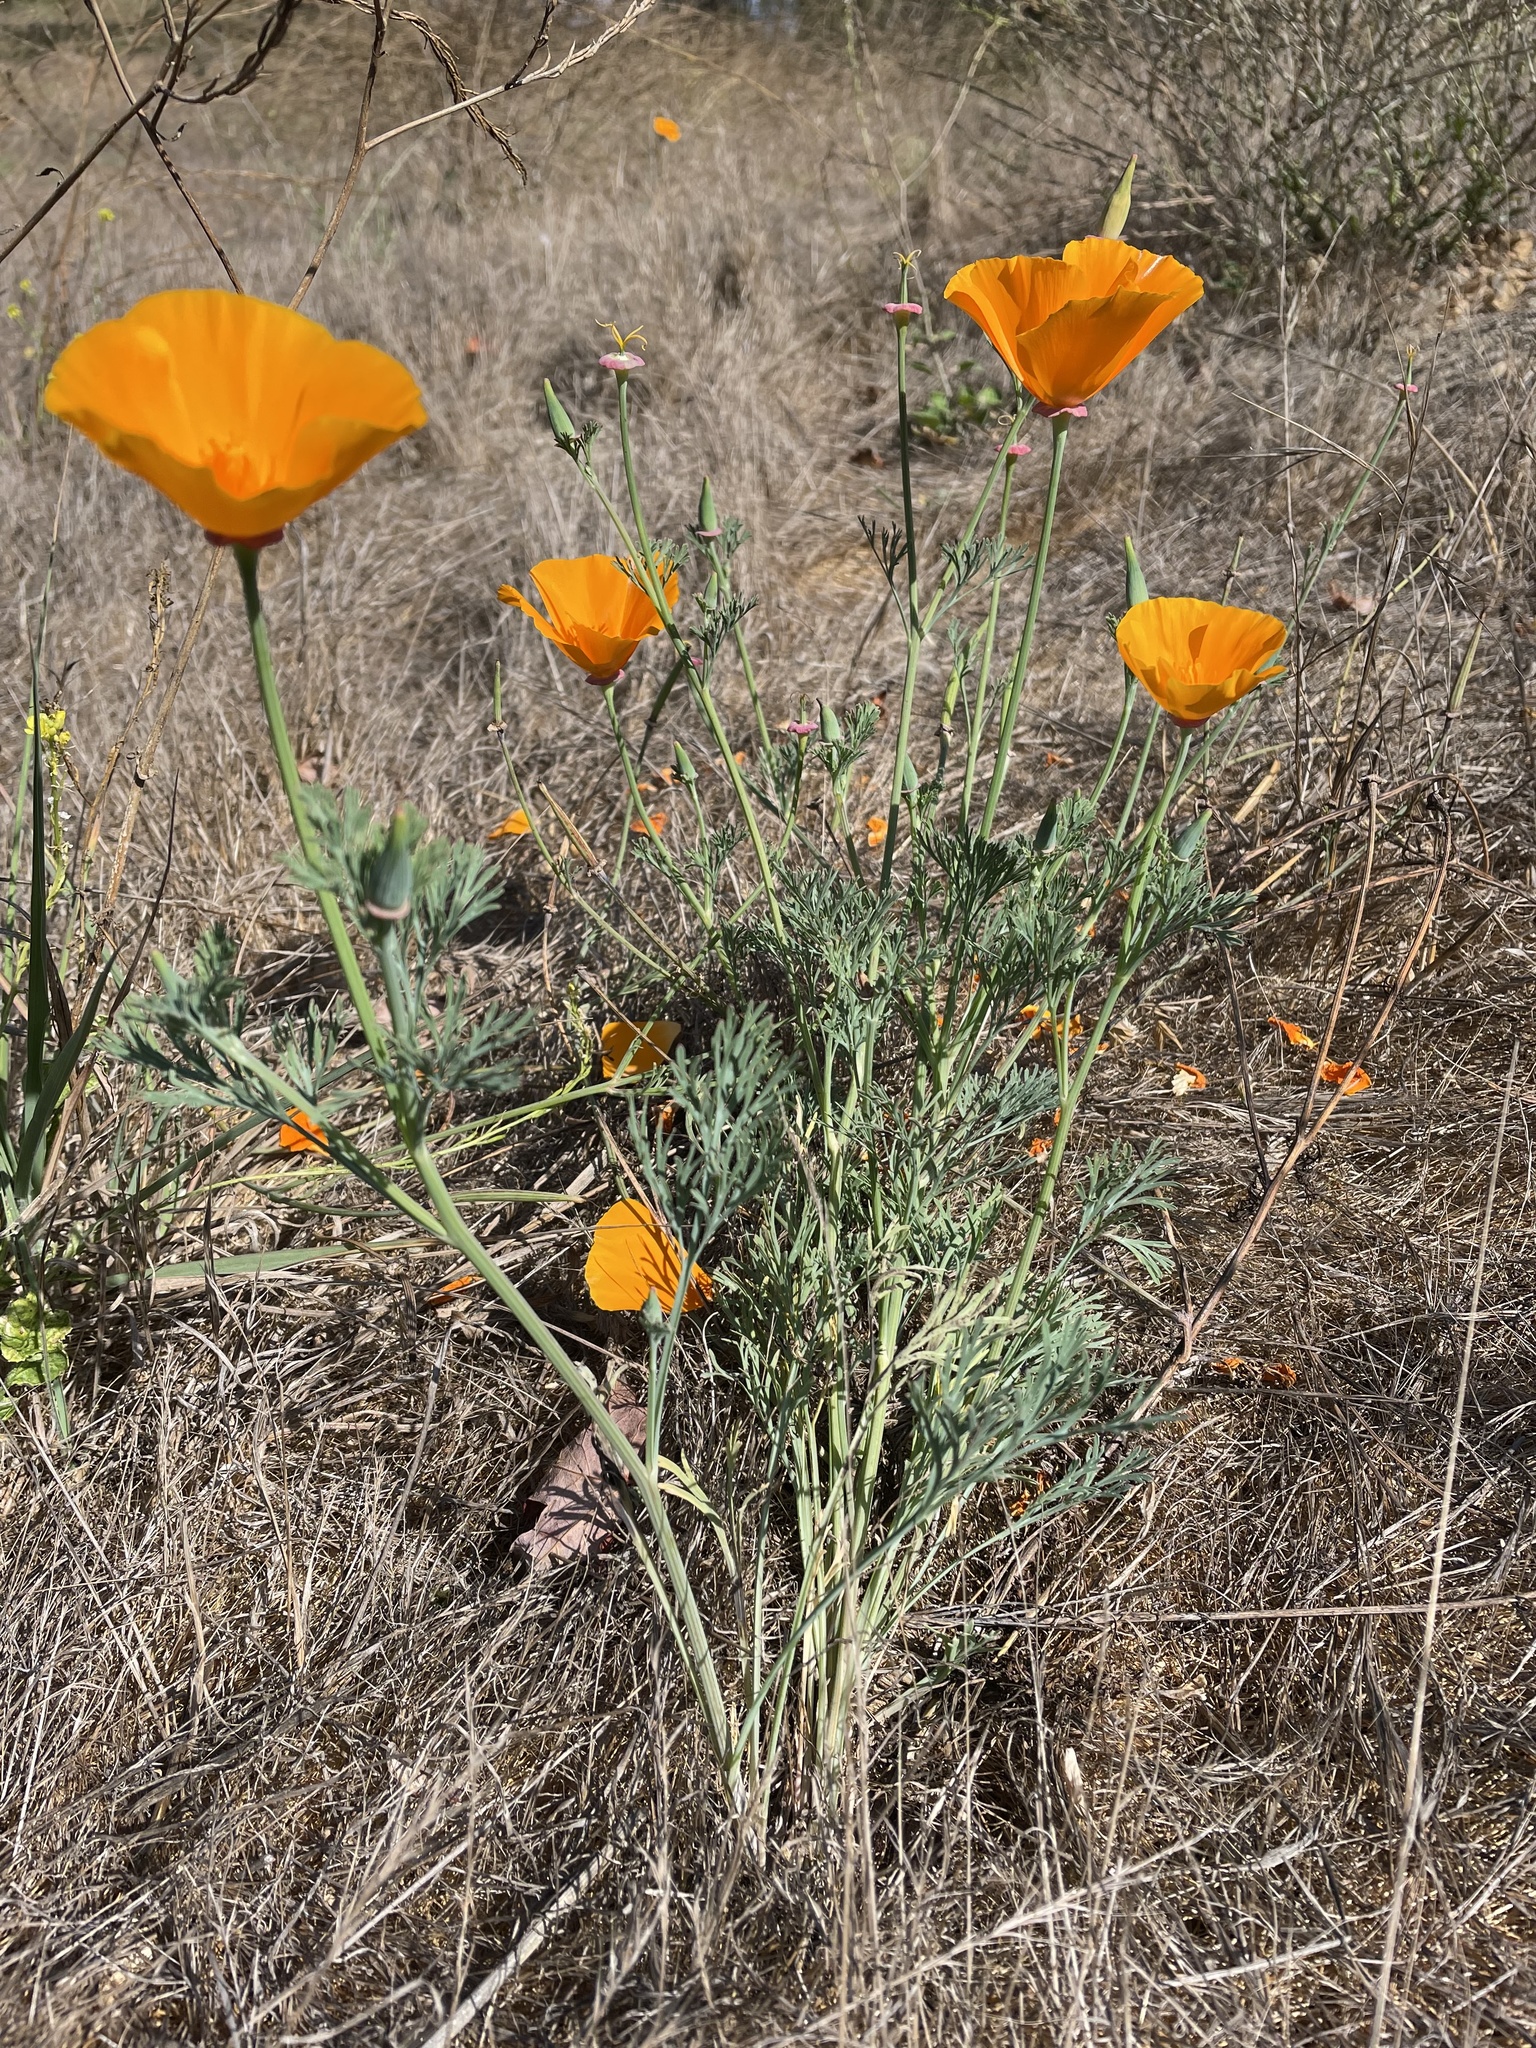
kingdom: Plantae
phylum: Tracheophyta
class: Magnoliopsida
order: Ranunculales
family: Papaveraceae
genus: Eschscholzia
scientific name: Eschscholzia californica
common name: California poppy
